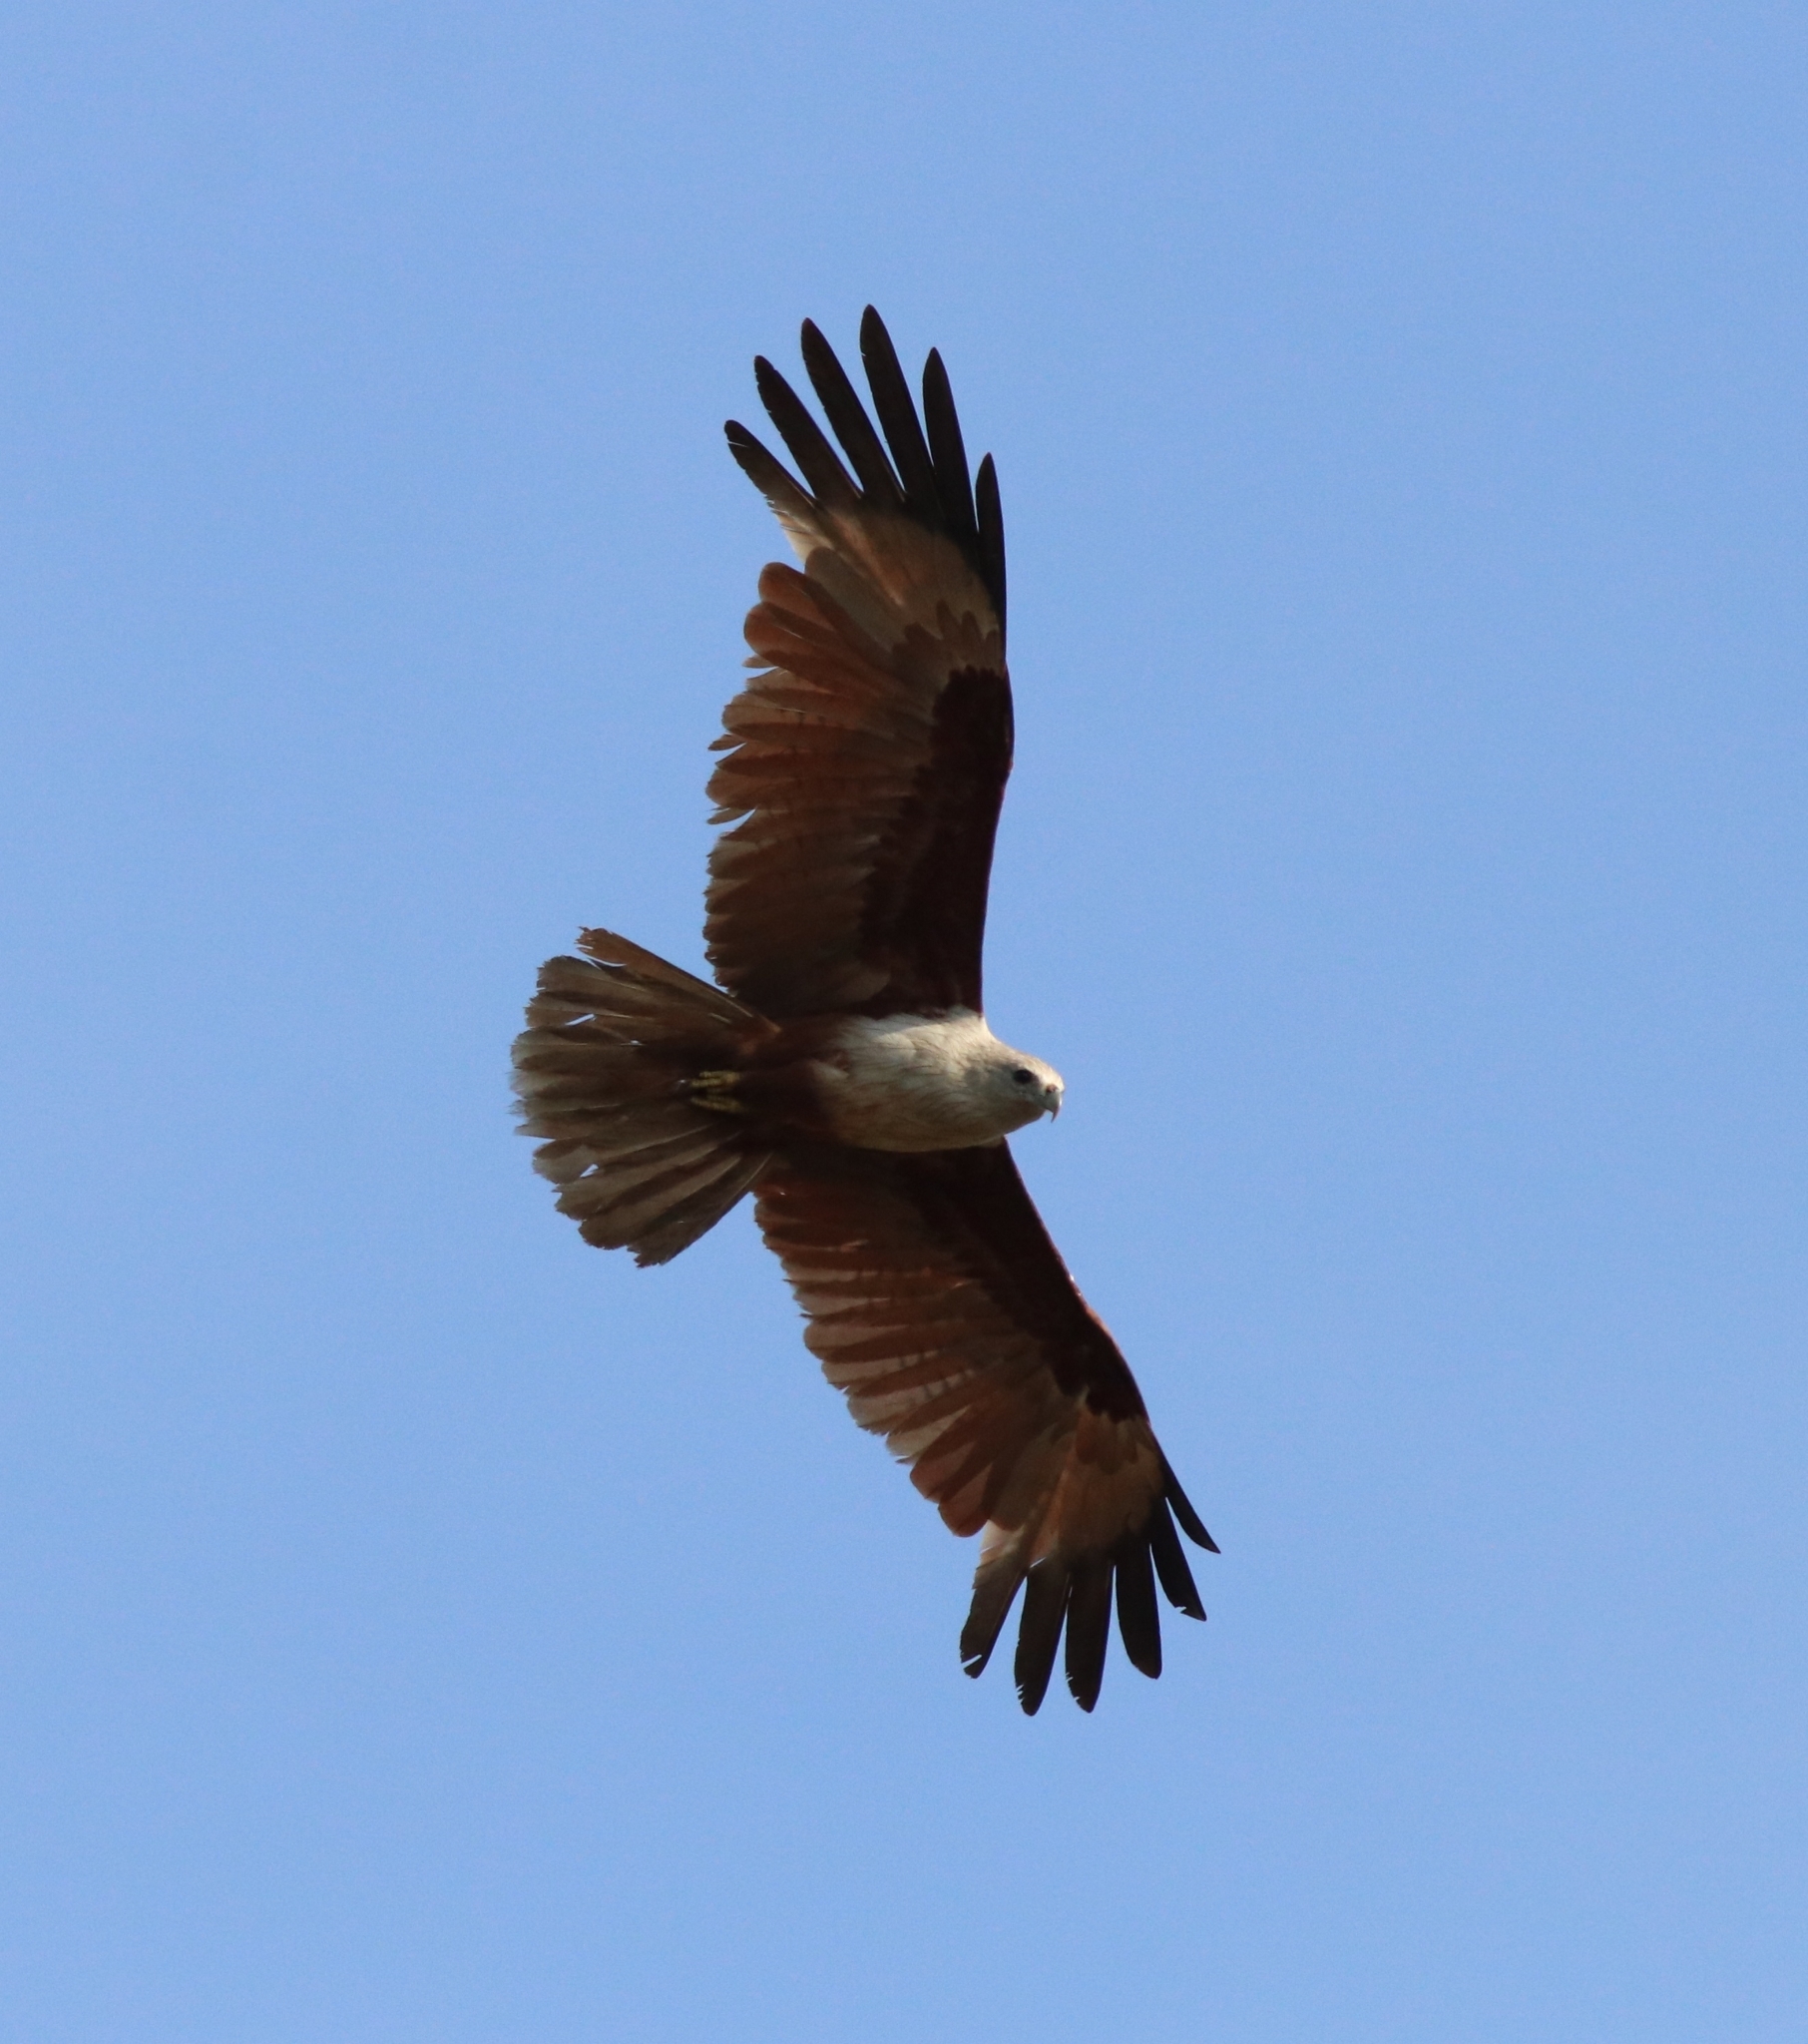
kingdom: Animalia
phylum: Chordata
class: Aves
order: Accipitriformes
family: Accipitridae
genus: Haliastur
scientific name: Haliastur indus
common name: Brahminy kite
